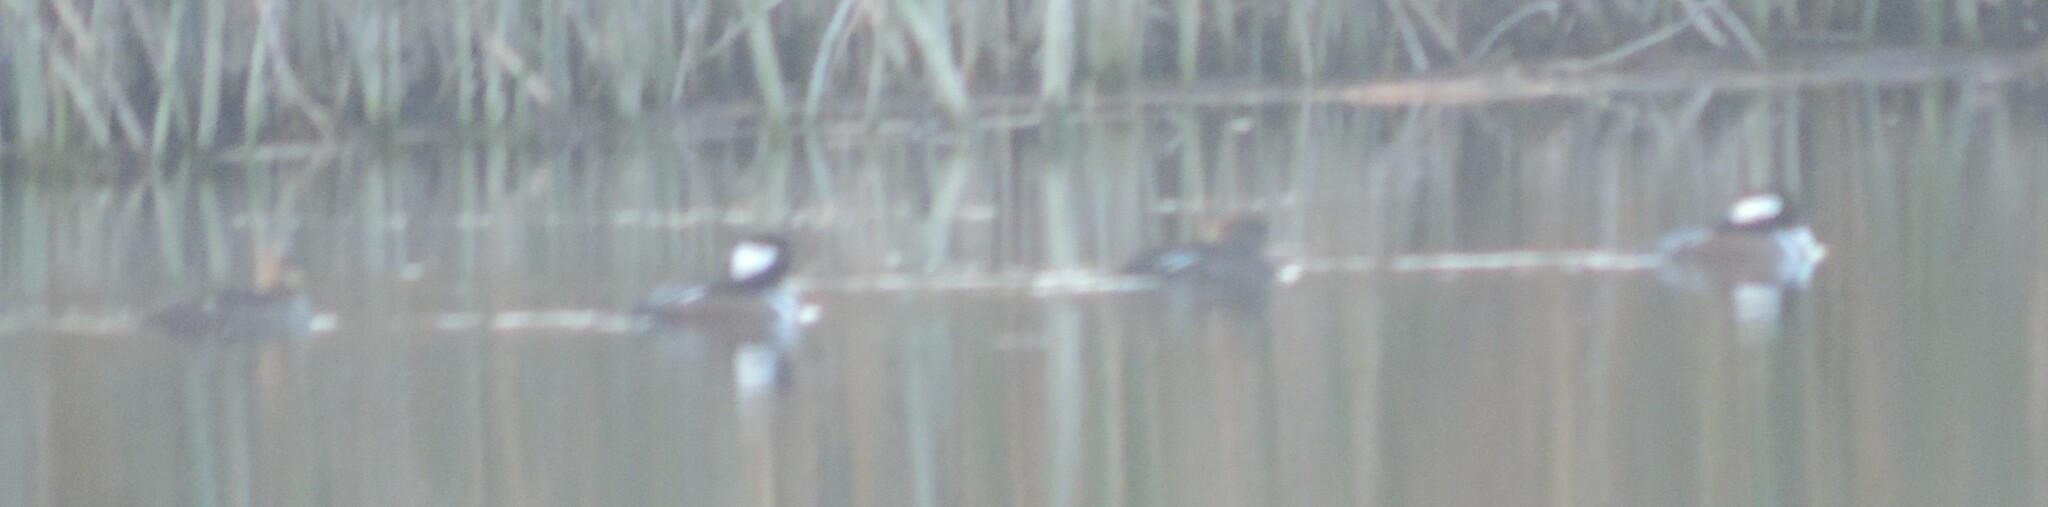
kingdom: Animalia
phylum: Chordata
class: Aves
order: Anseriformes
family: Anatidae
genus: Lophodytes
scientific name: Lophodytes cucullatus
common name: Hooded merganser
